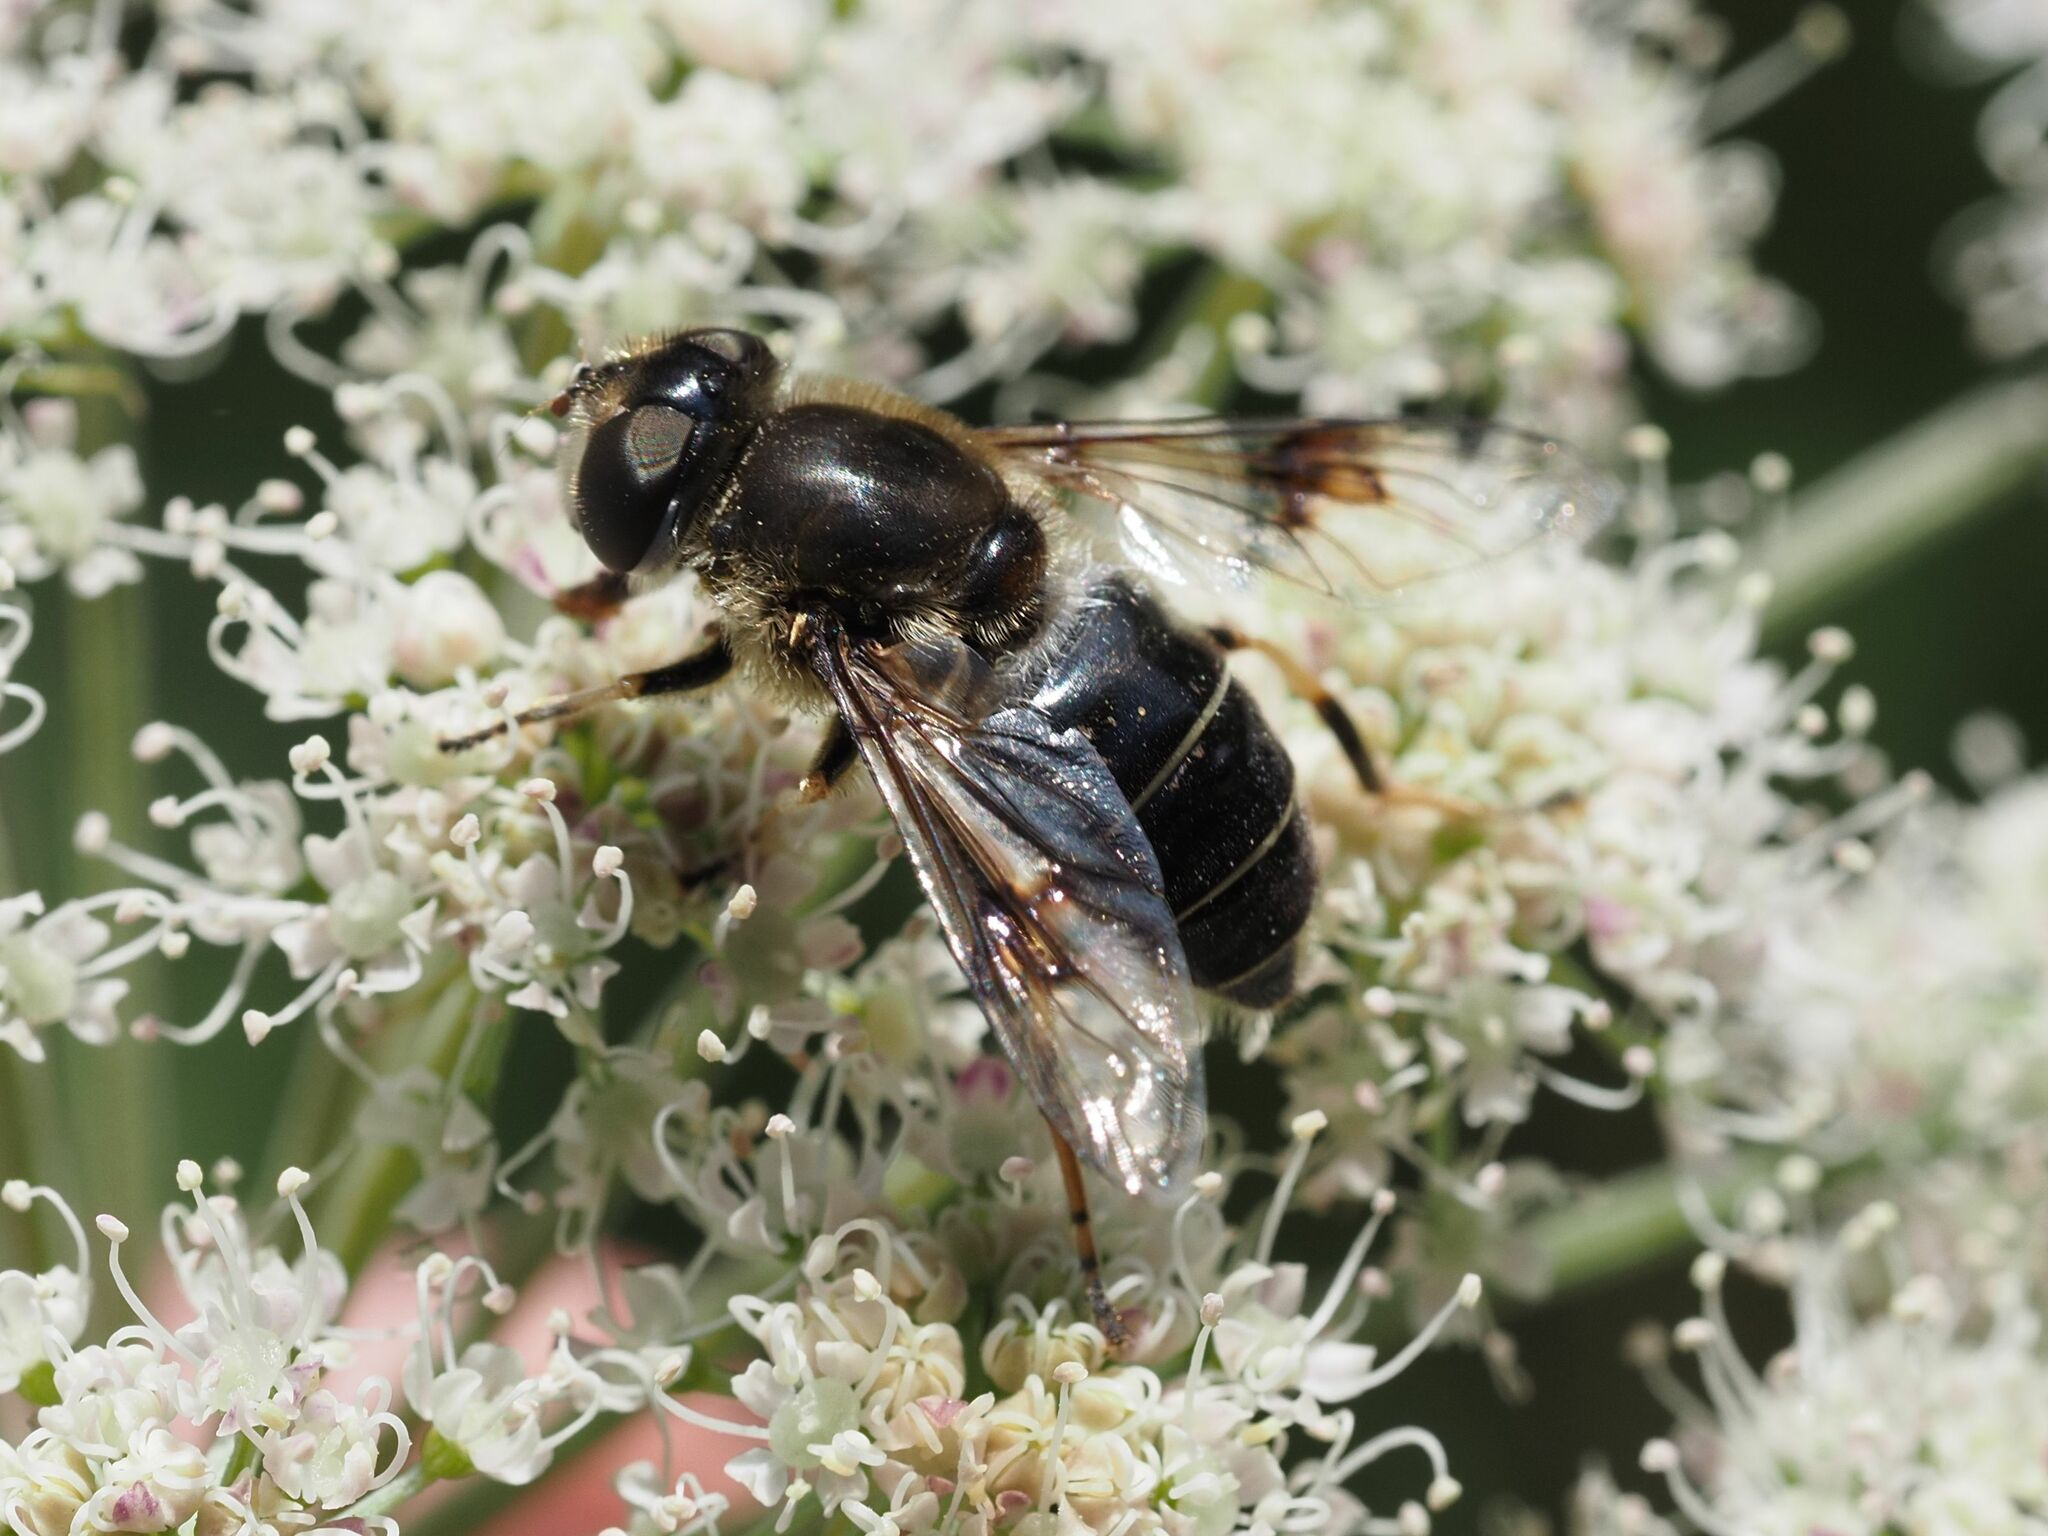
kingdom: Animalia
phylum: Arthropoda
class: Insecta
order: Diptera
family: Syrphidae
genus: Eristalis
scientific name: Eristalis rupium
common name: Hover fly
